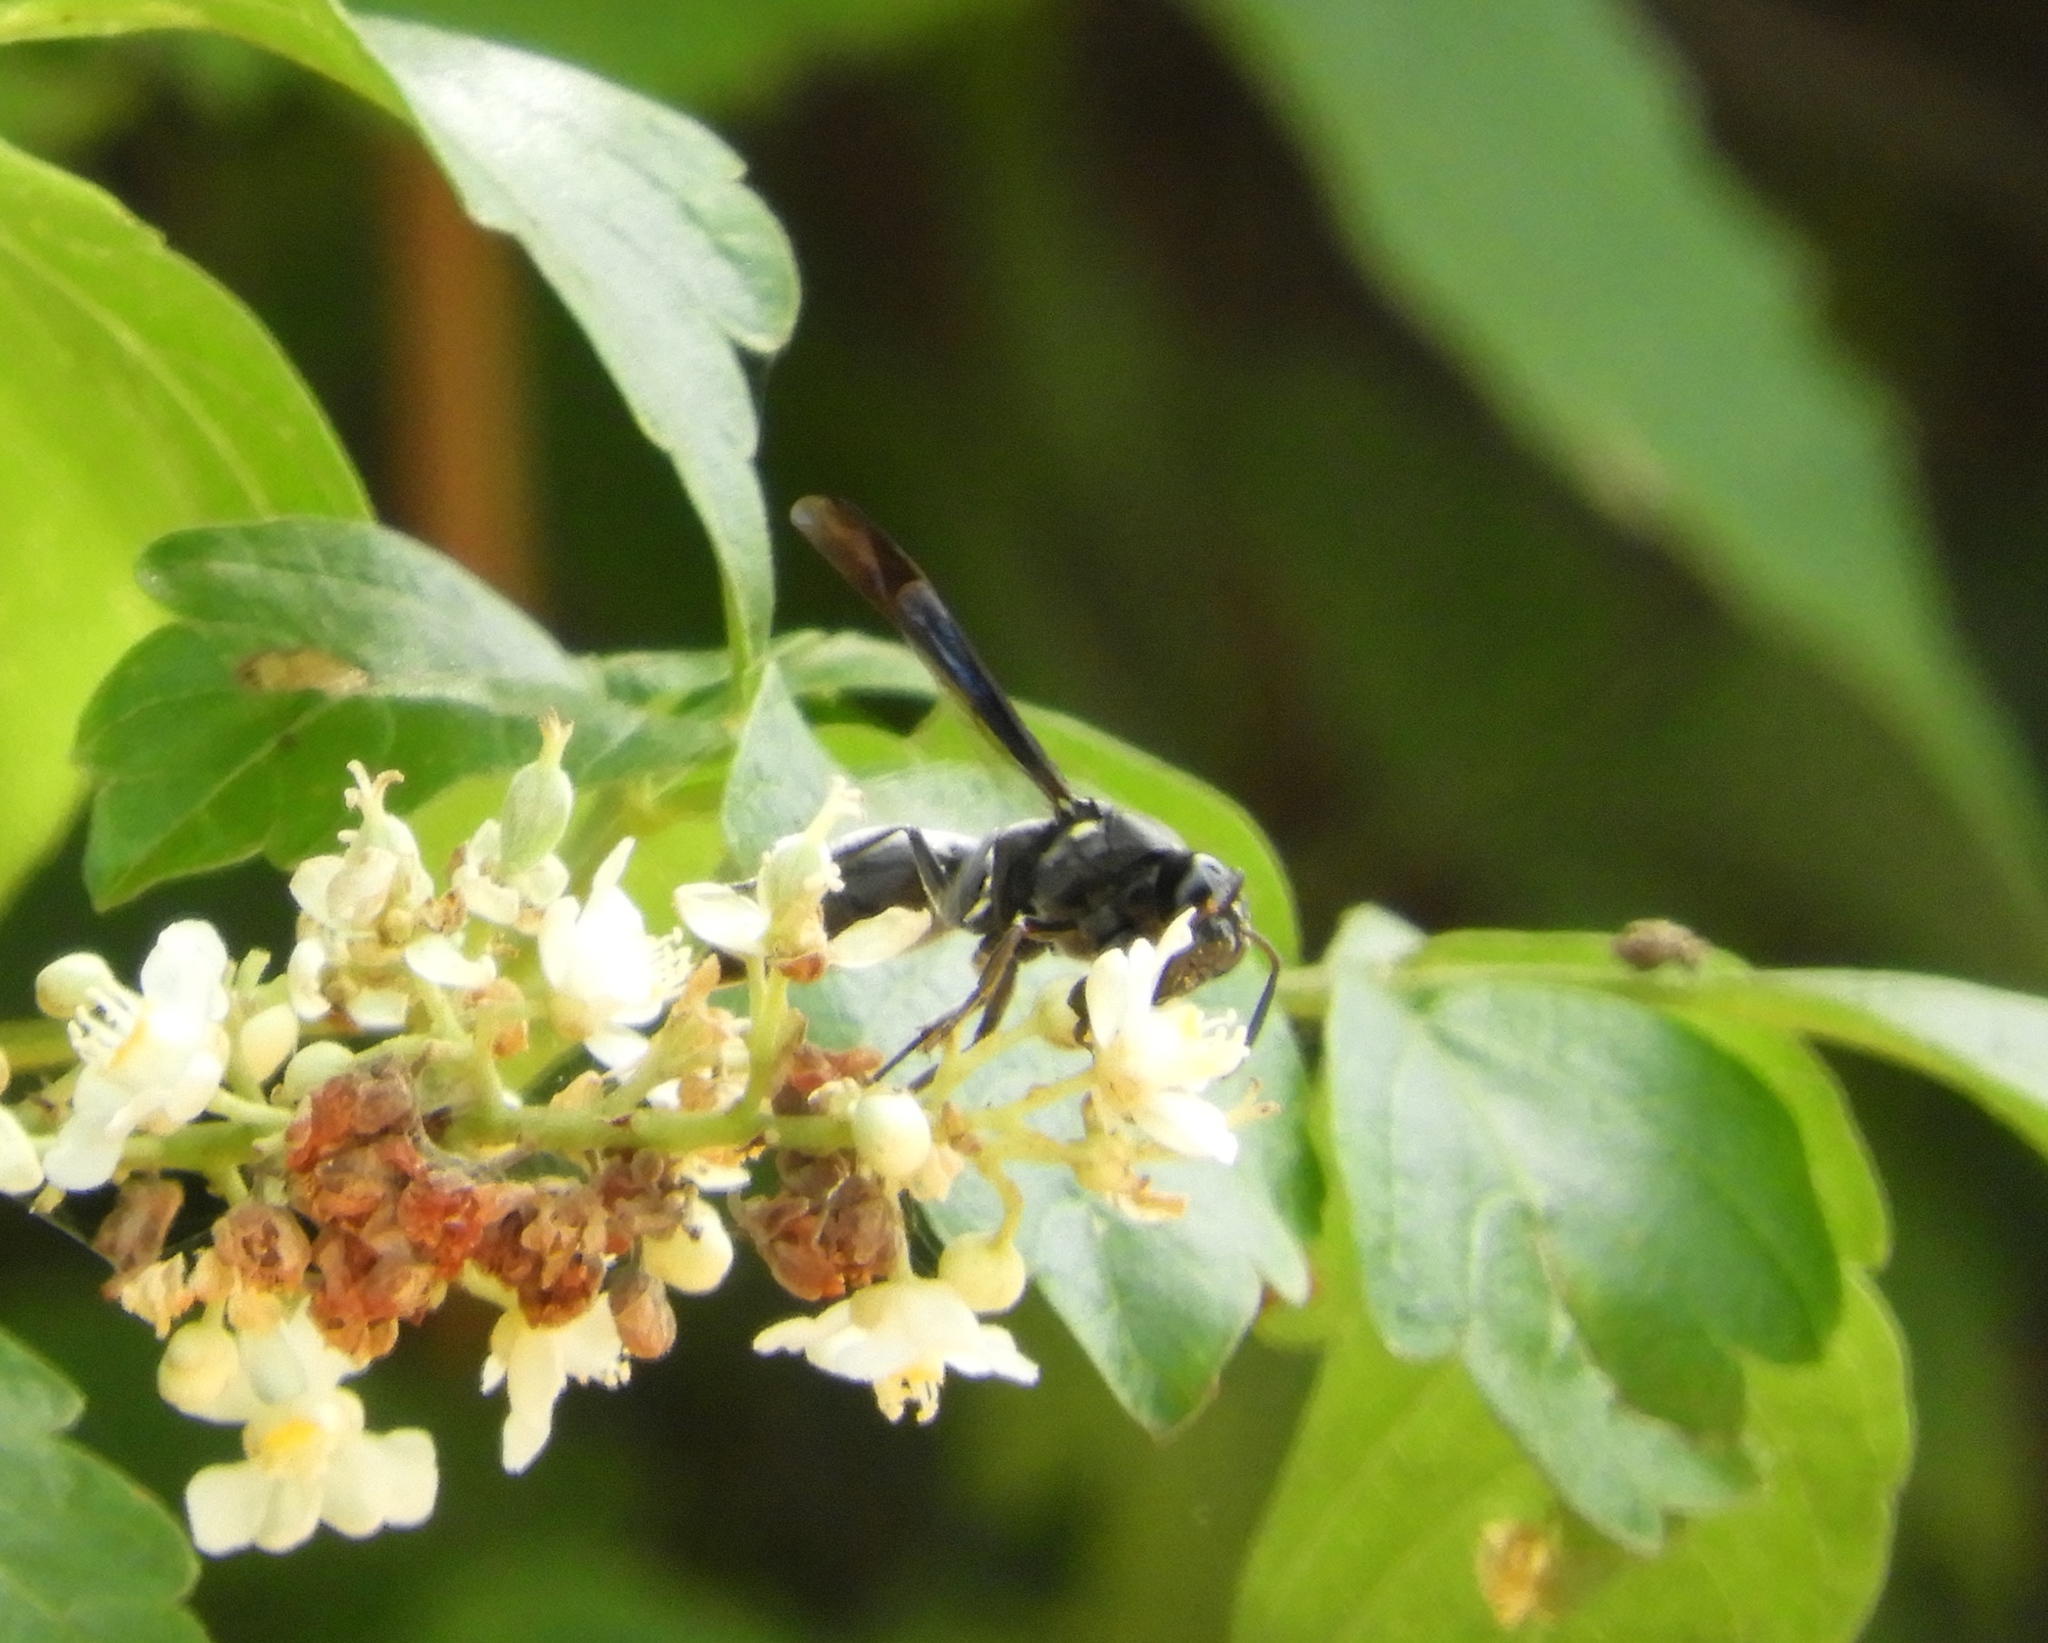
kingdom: Animalia
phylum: Arthropoda
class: Insecta
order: Hymenoptera
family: Eumenidae
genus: Monobia
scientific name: Monobia biangulata
